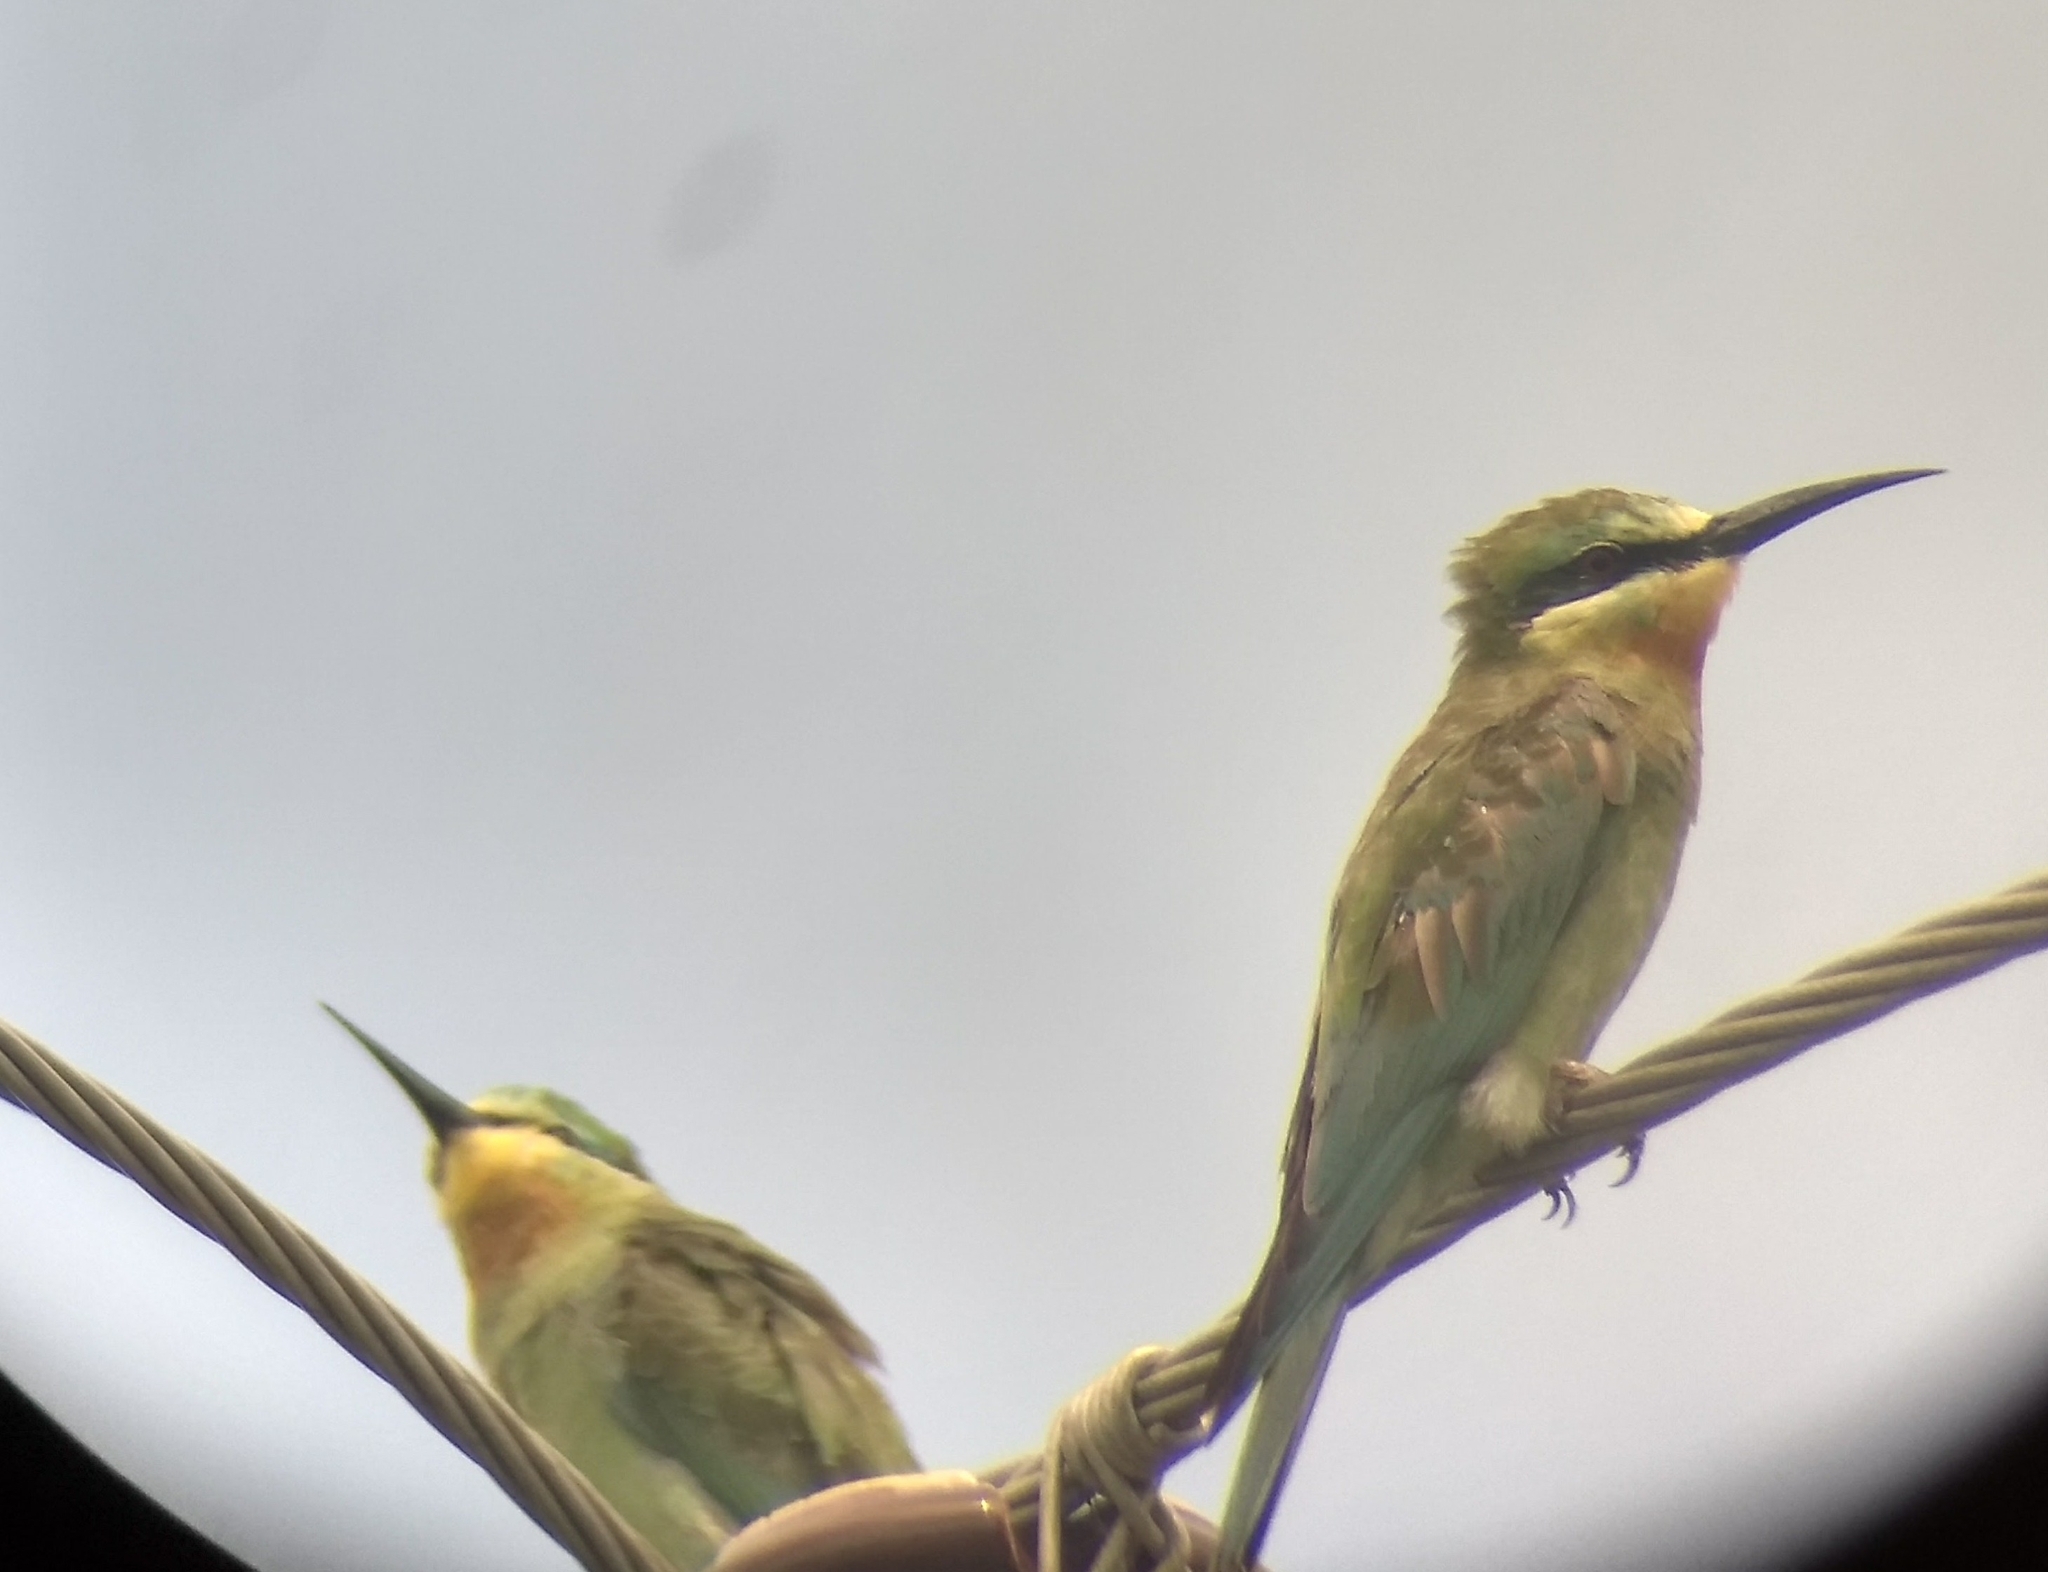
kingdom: Animalia
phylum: Chordata
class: Aves
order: Coraciiformes
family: Meropidae
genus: Merops
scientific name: Merops philippinus
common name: Blue-tailed bee-eater
